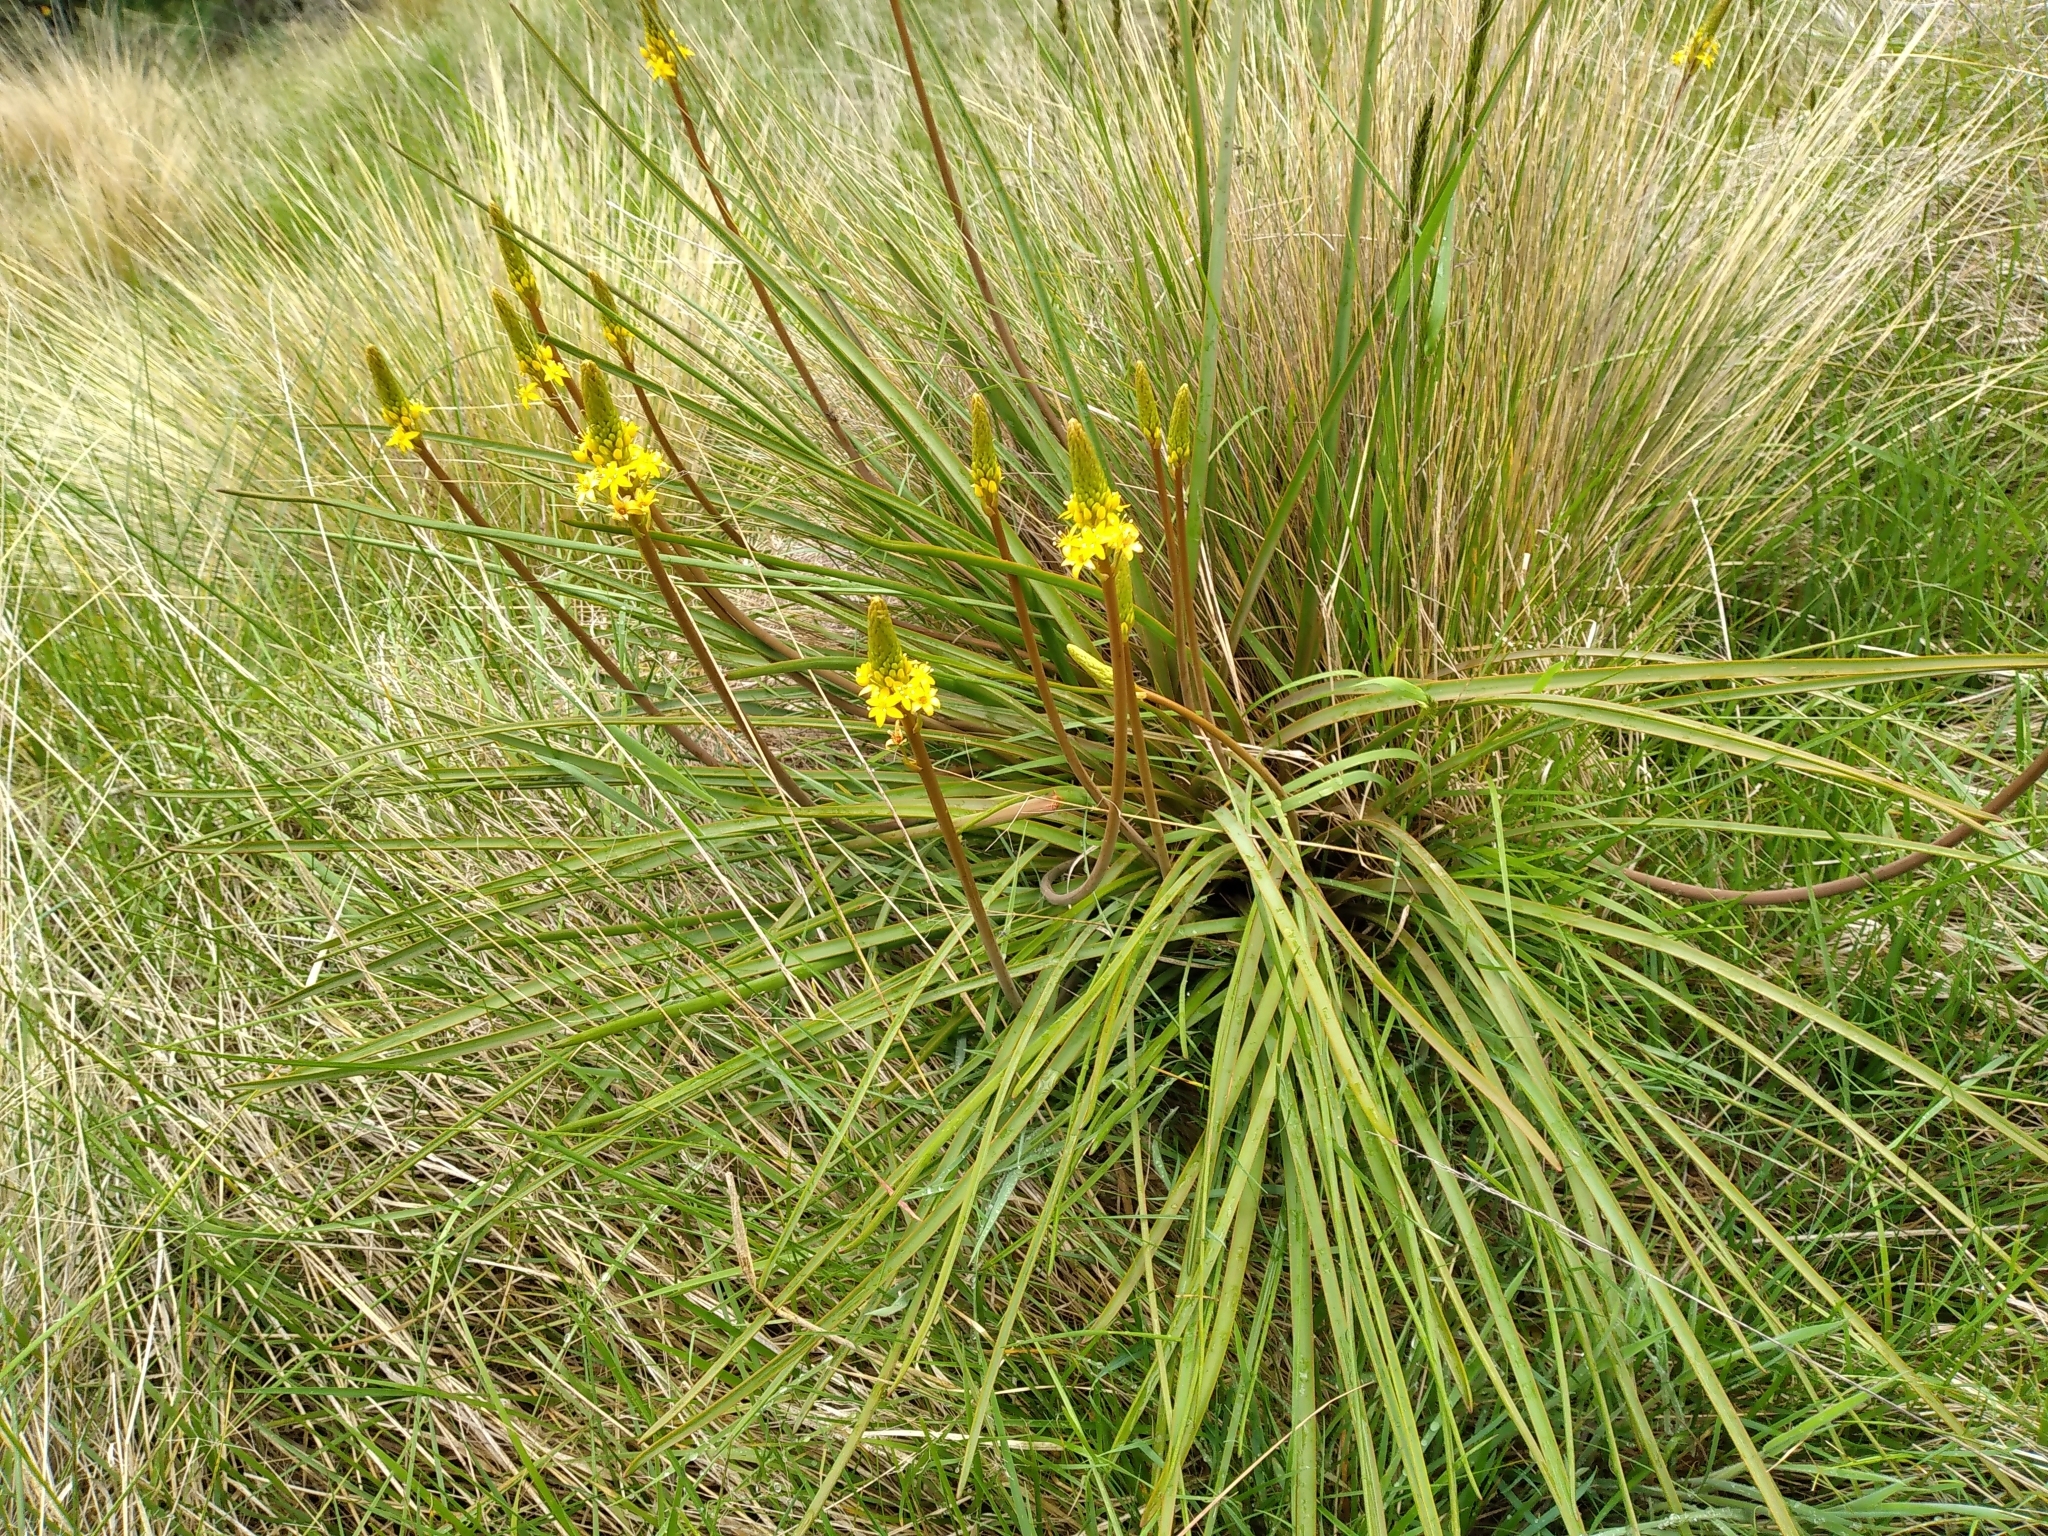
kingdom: Plantae
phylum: Tracheophyta
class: Liliopsida
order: Asparagales
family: Asphodelaceae
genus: Bulbinella
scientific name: Bulbinella angustifolia
